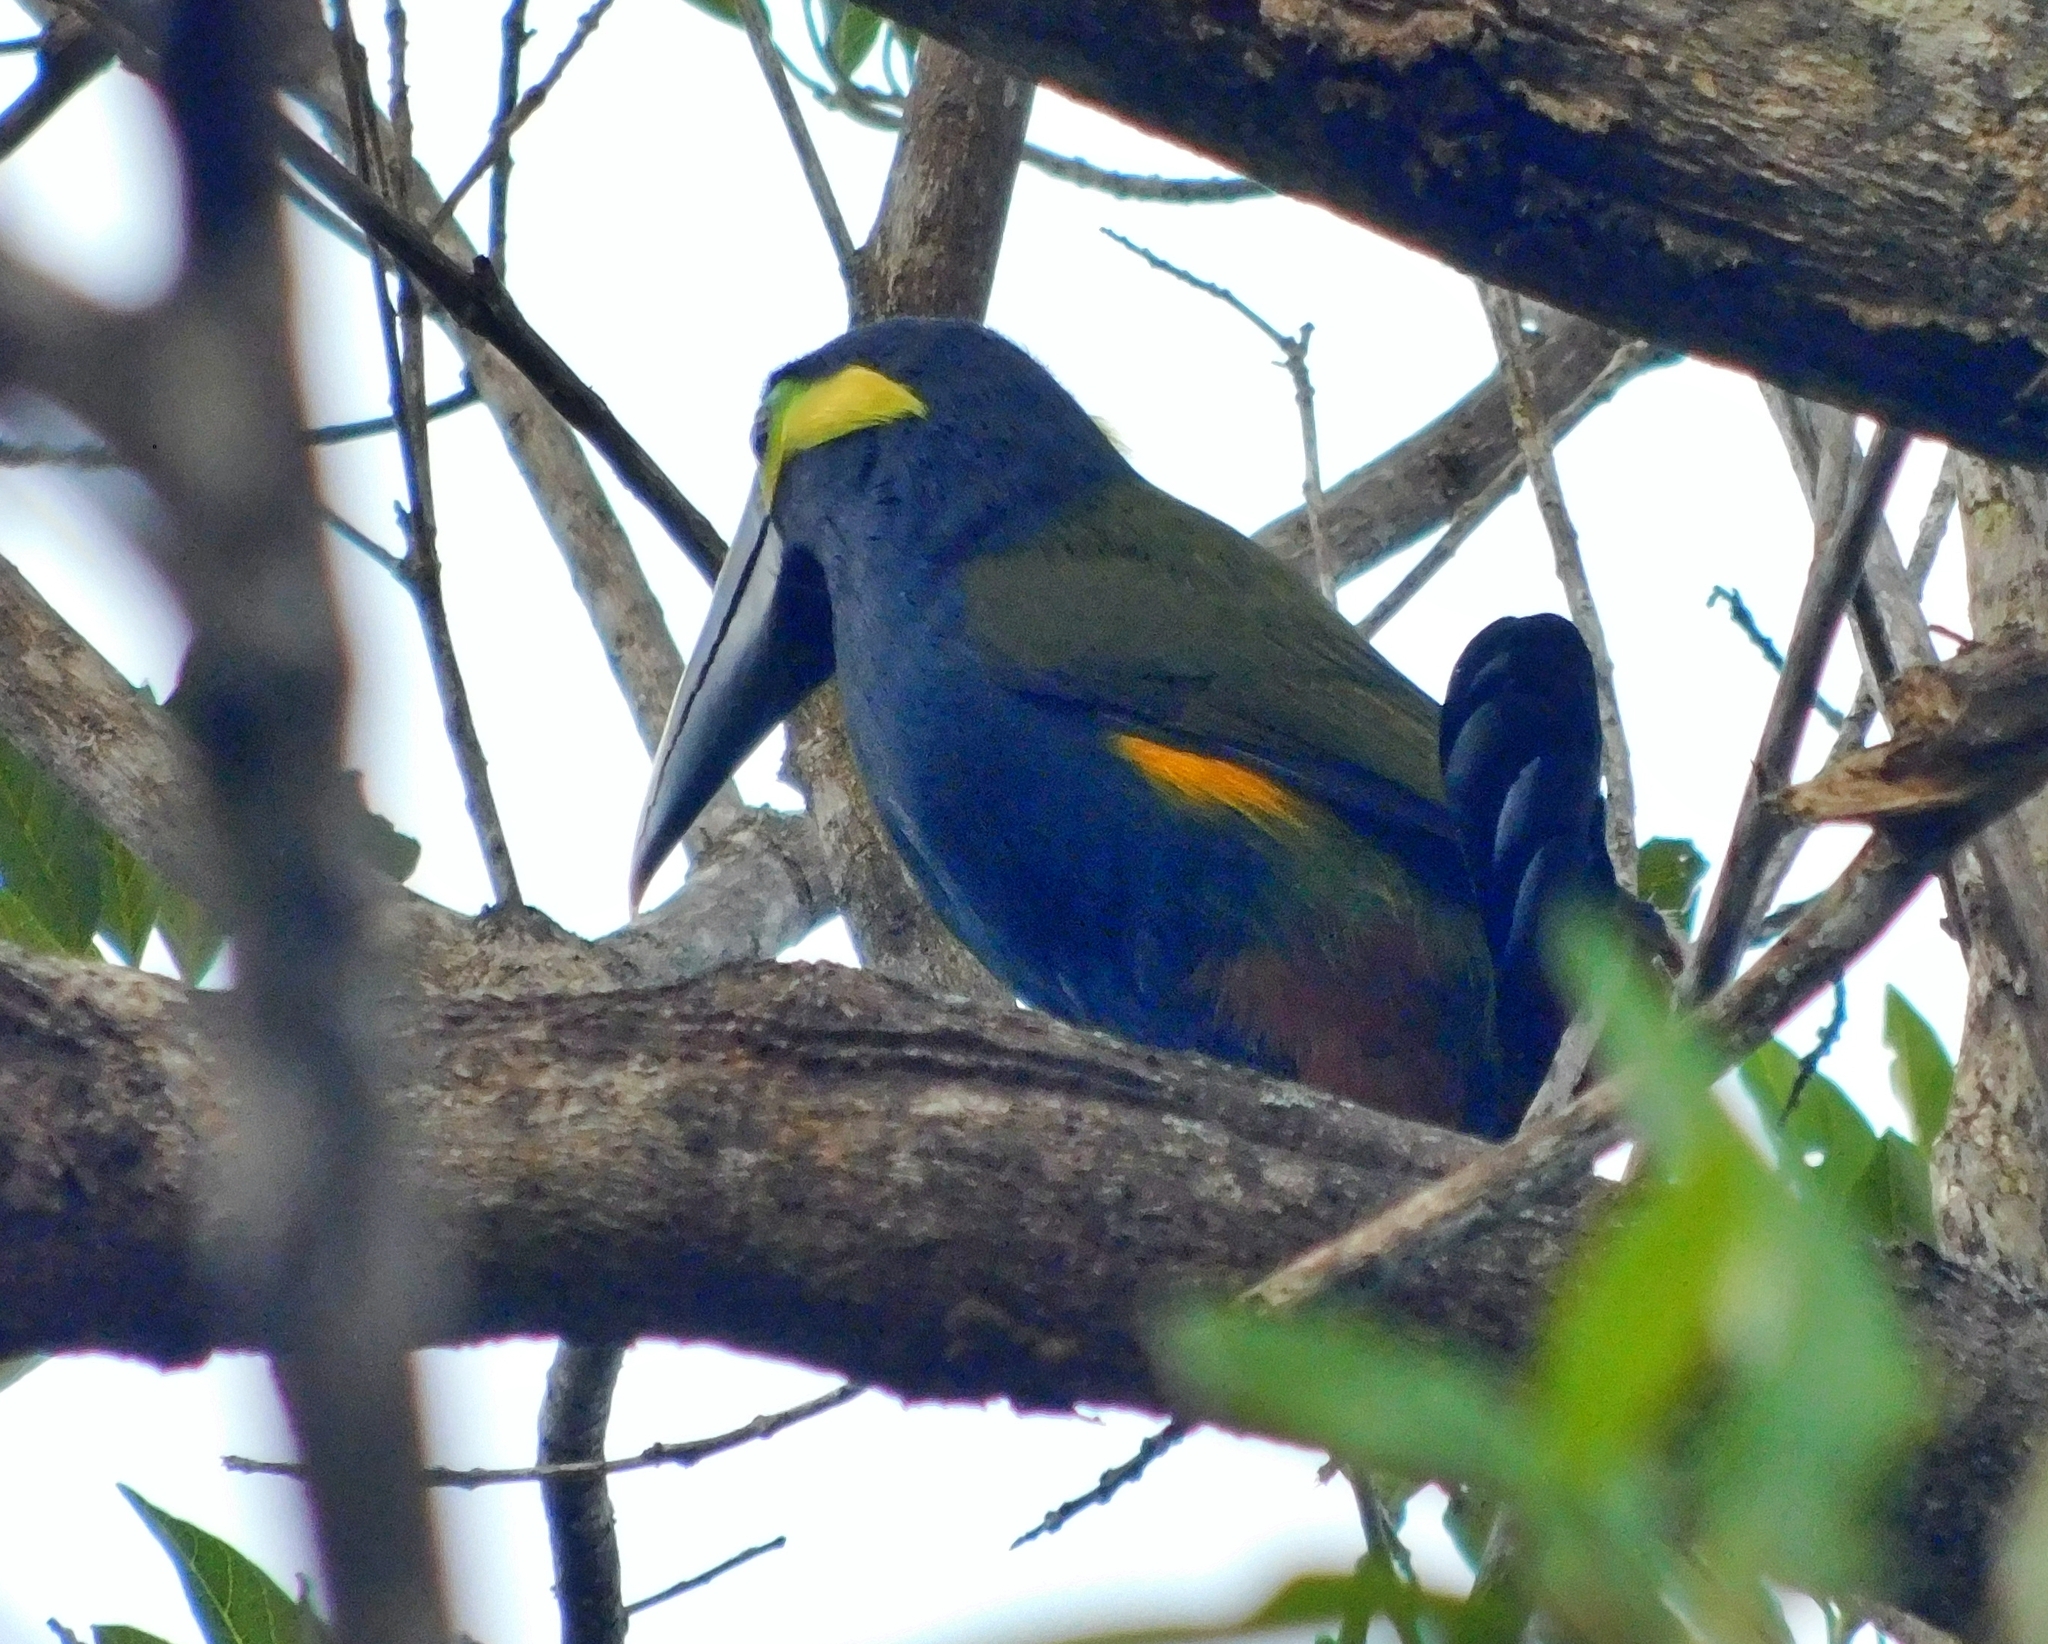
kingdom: Animalia
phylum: Chordata
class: Aves
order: Piciformes
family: Ramphastidae
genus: Selenidera
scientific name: Selenidera spectabilis
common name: Yellow-eared toucanet
